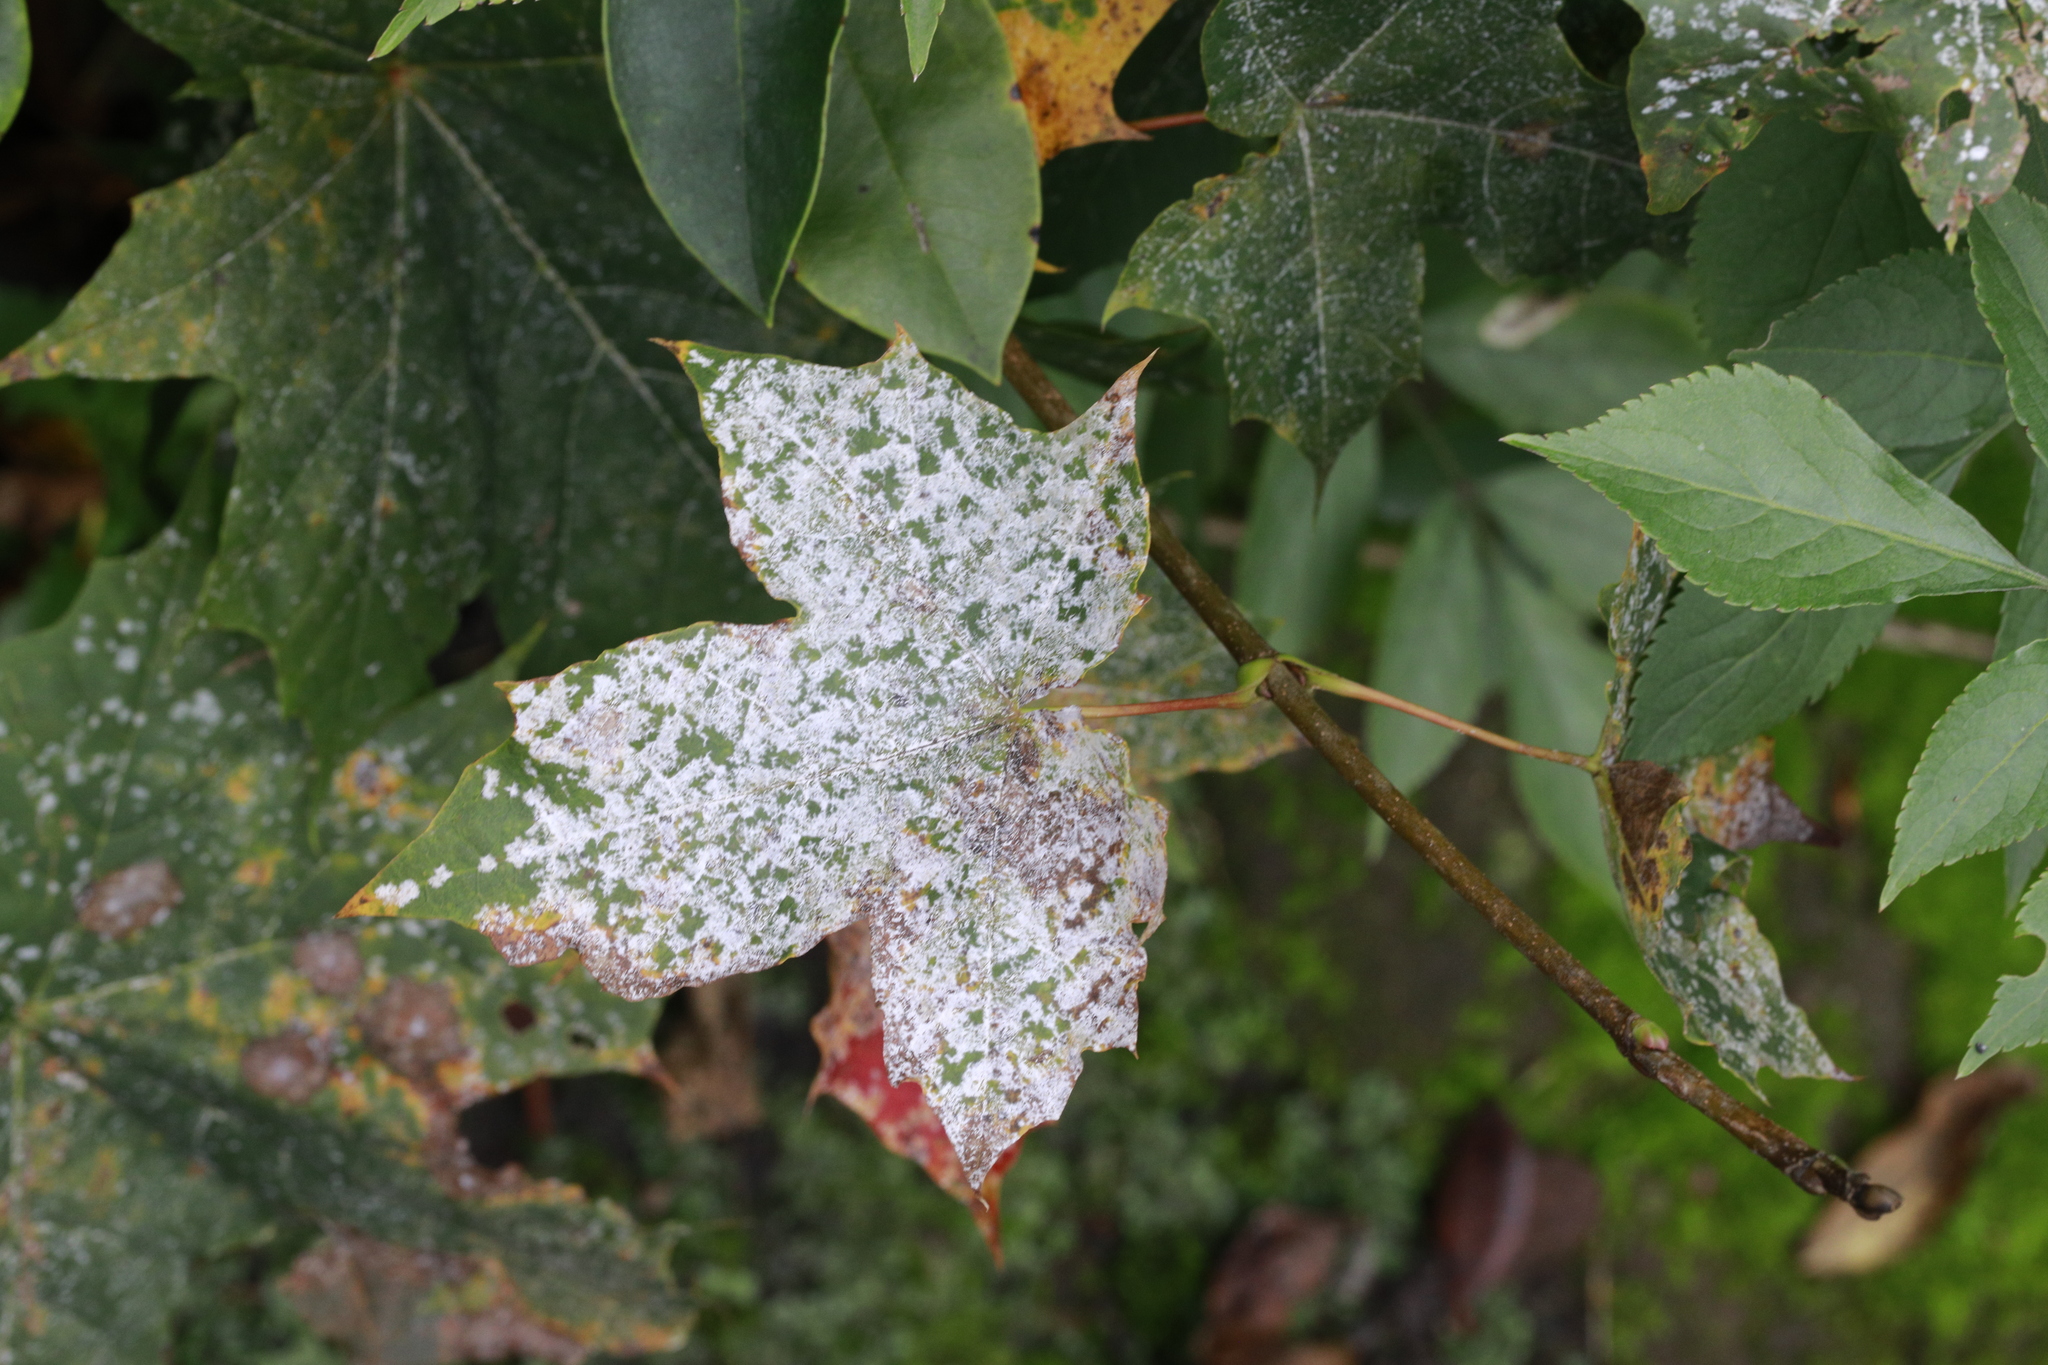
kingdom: Fungi
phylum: Ascomycota
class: Leotiomycetes
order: Helotiales
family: Erysiphaceae
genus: Sawadaea
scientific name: Sawadaea tulasnei
